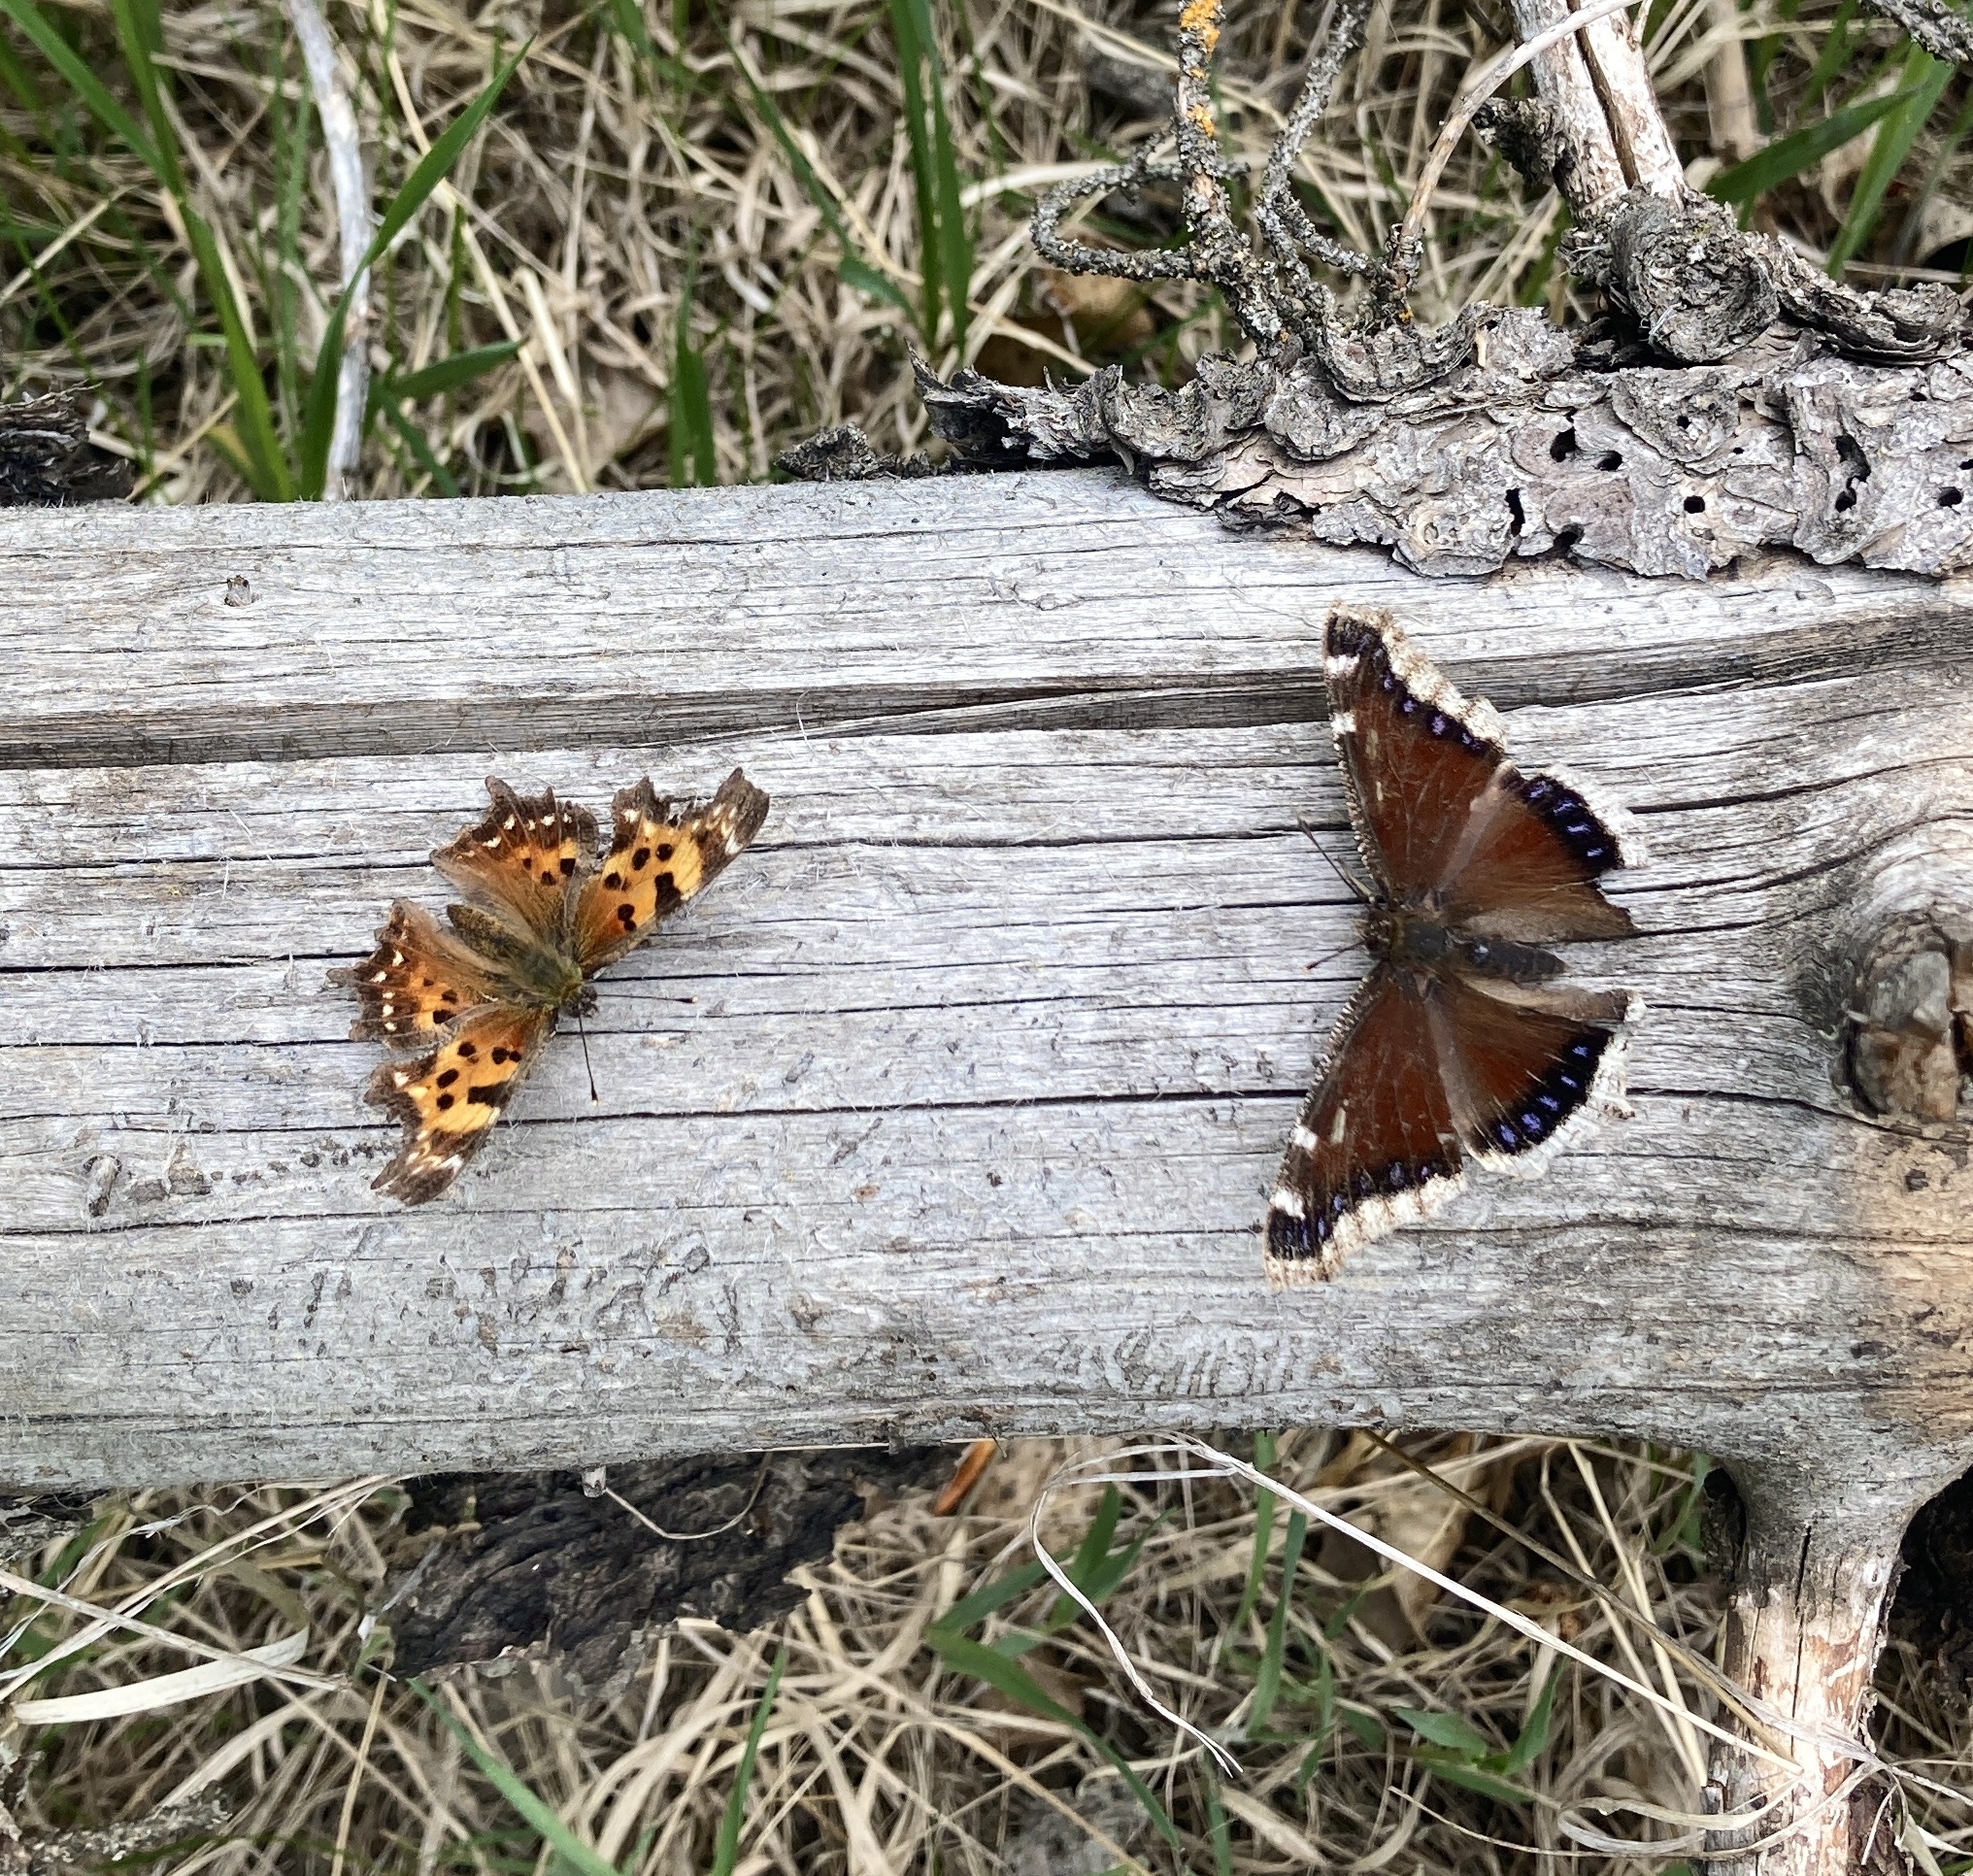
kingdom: Animalia
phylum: Arthropoda
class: Insecta
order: Lepidoptera
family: Nymphalidae
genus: Polygonia
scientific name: Polygonia faunus
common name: Green comma
